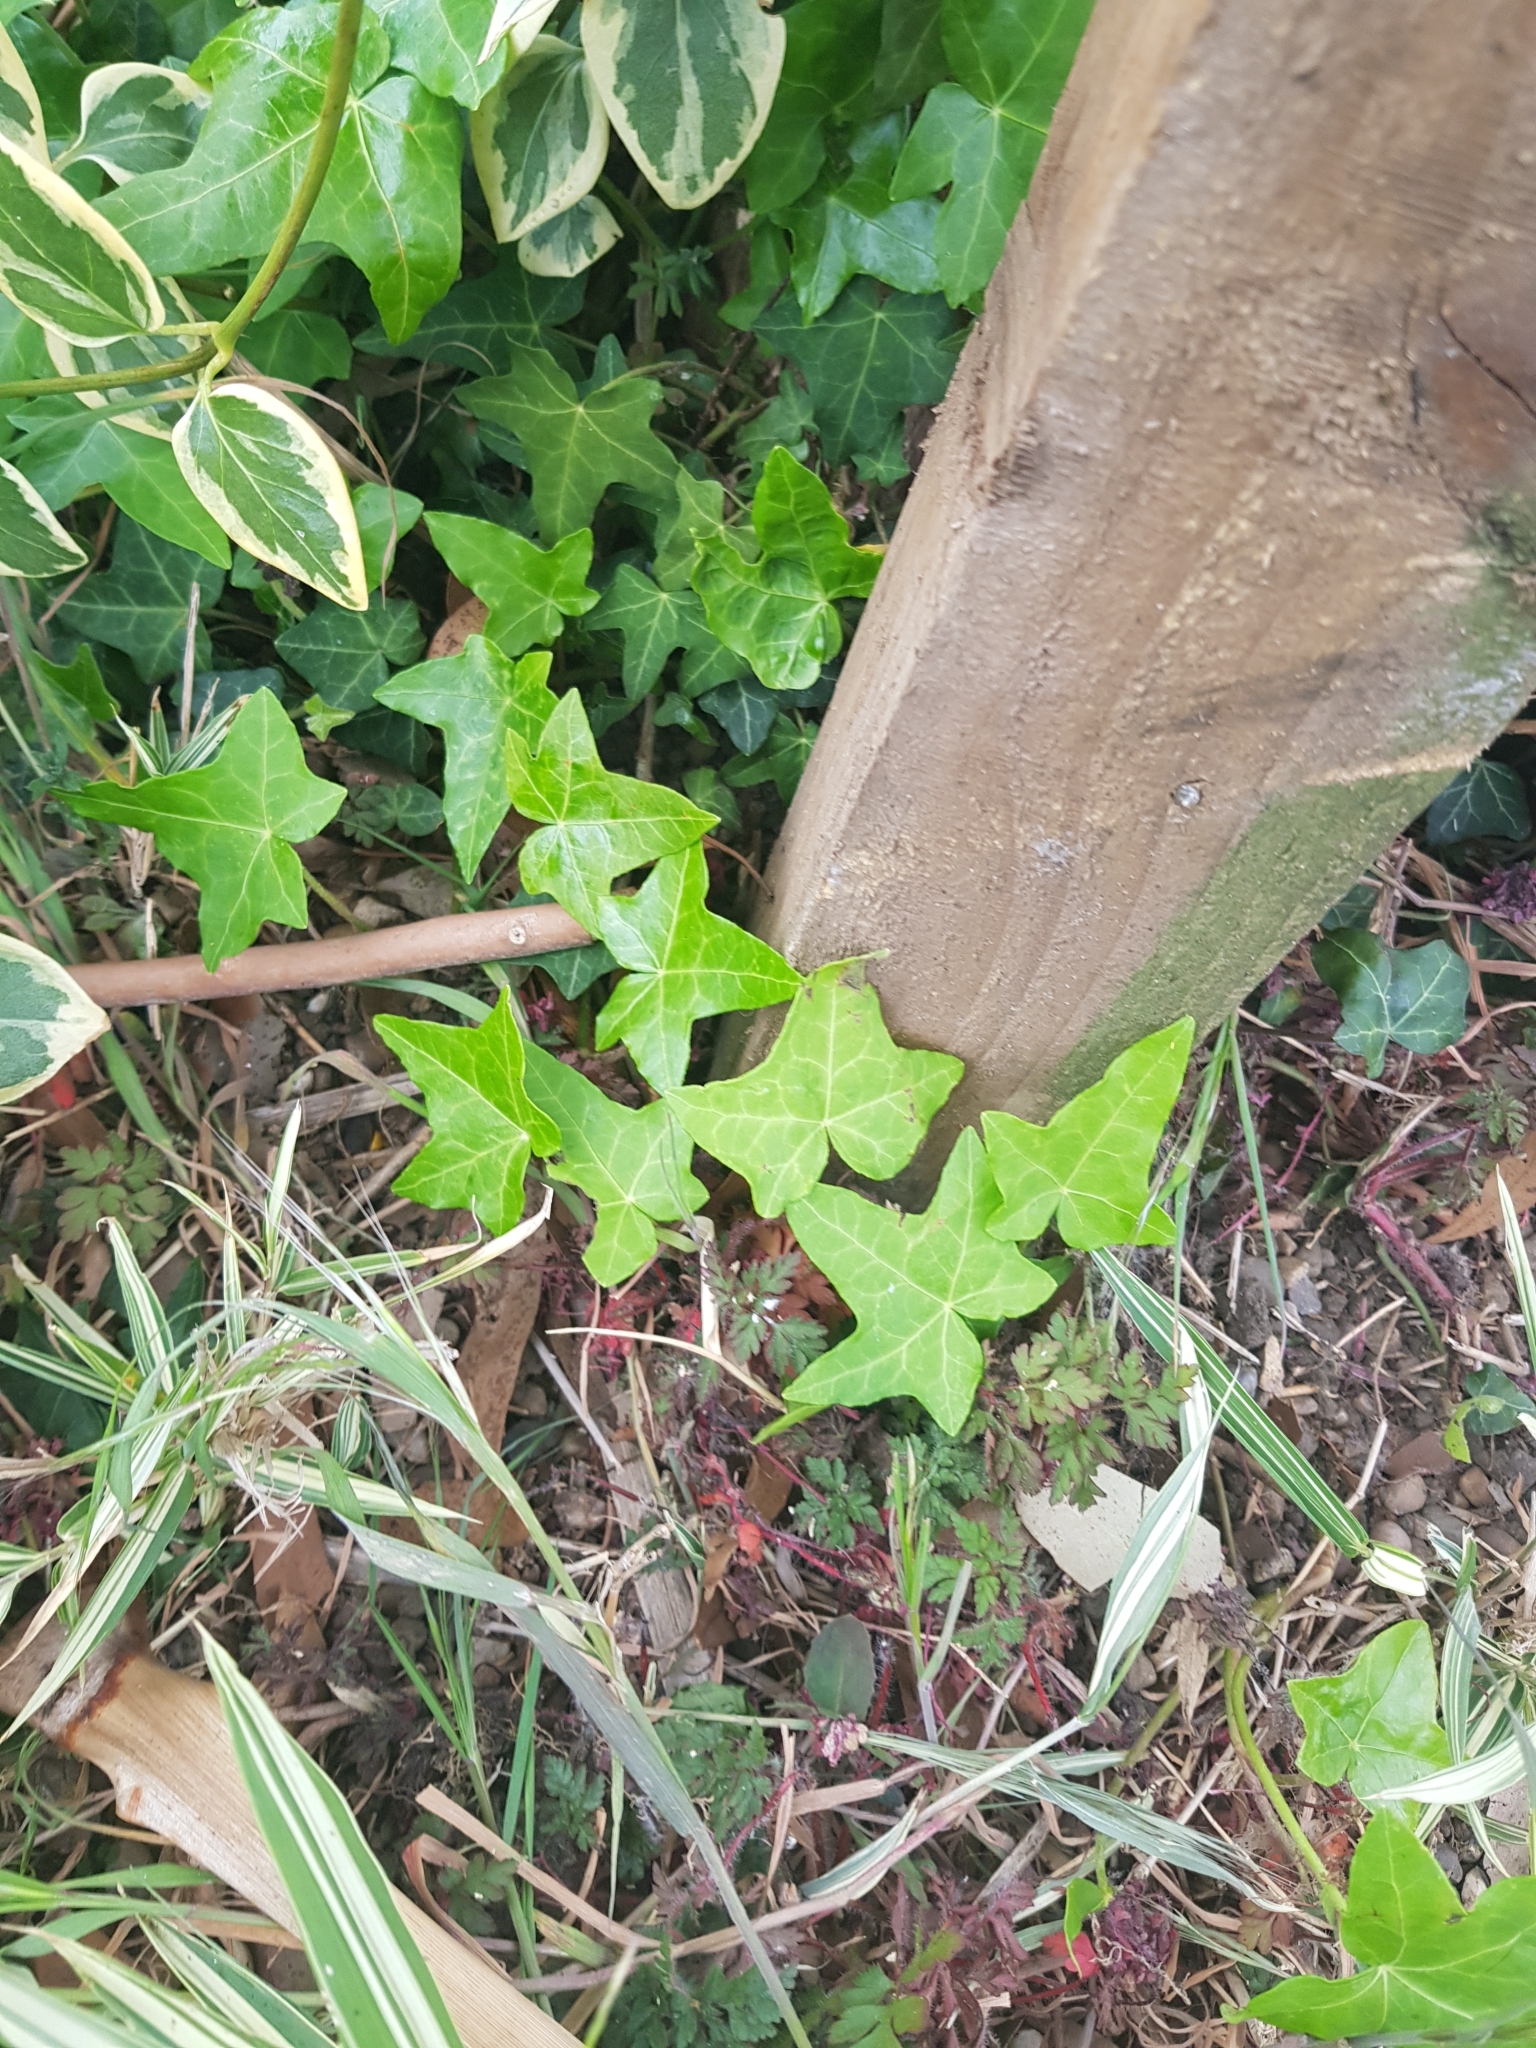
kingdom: Plantae
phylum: Tracheophyta
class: Magnoliopsida
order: Apiales
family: Araliaceae
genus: Hedera
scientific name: Hedera helix
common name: Ivy
